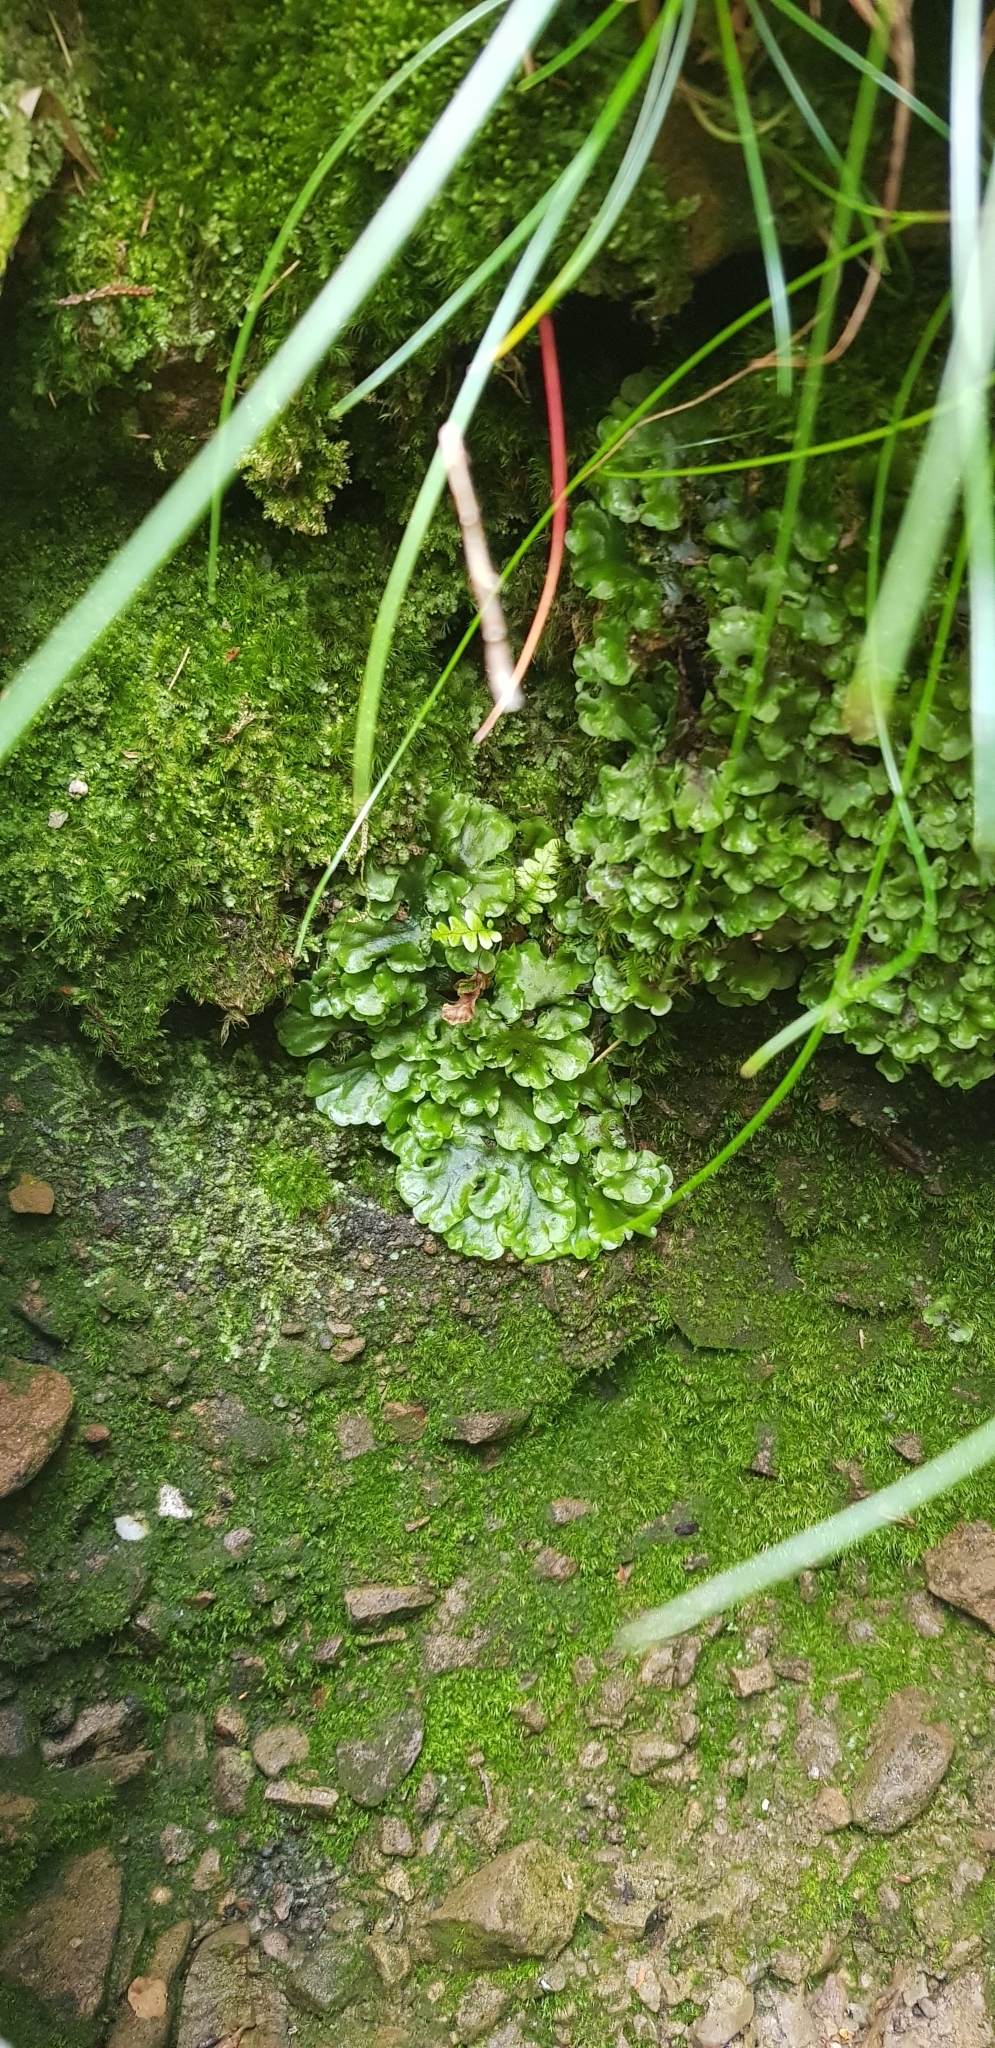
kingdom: Plantae
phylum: Marchantiophyta
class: Jungermanniopsida
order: Pelliales
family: Pelliaceae
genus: Pellia
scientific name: Pellia epiphylla
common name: Common pellia
